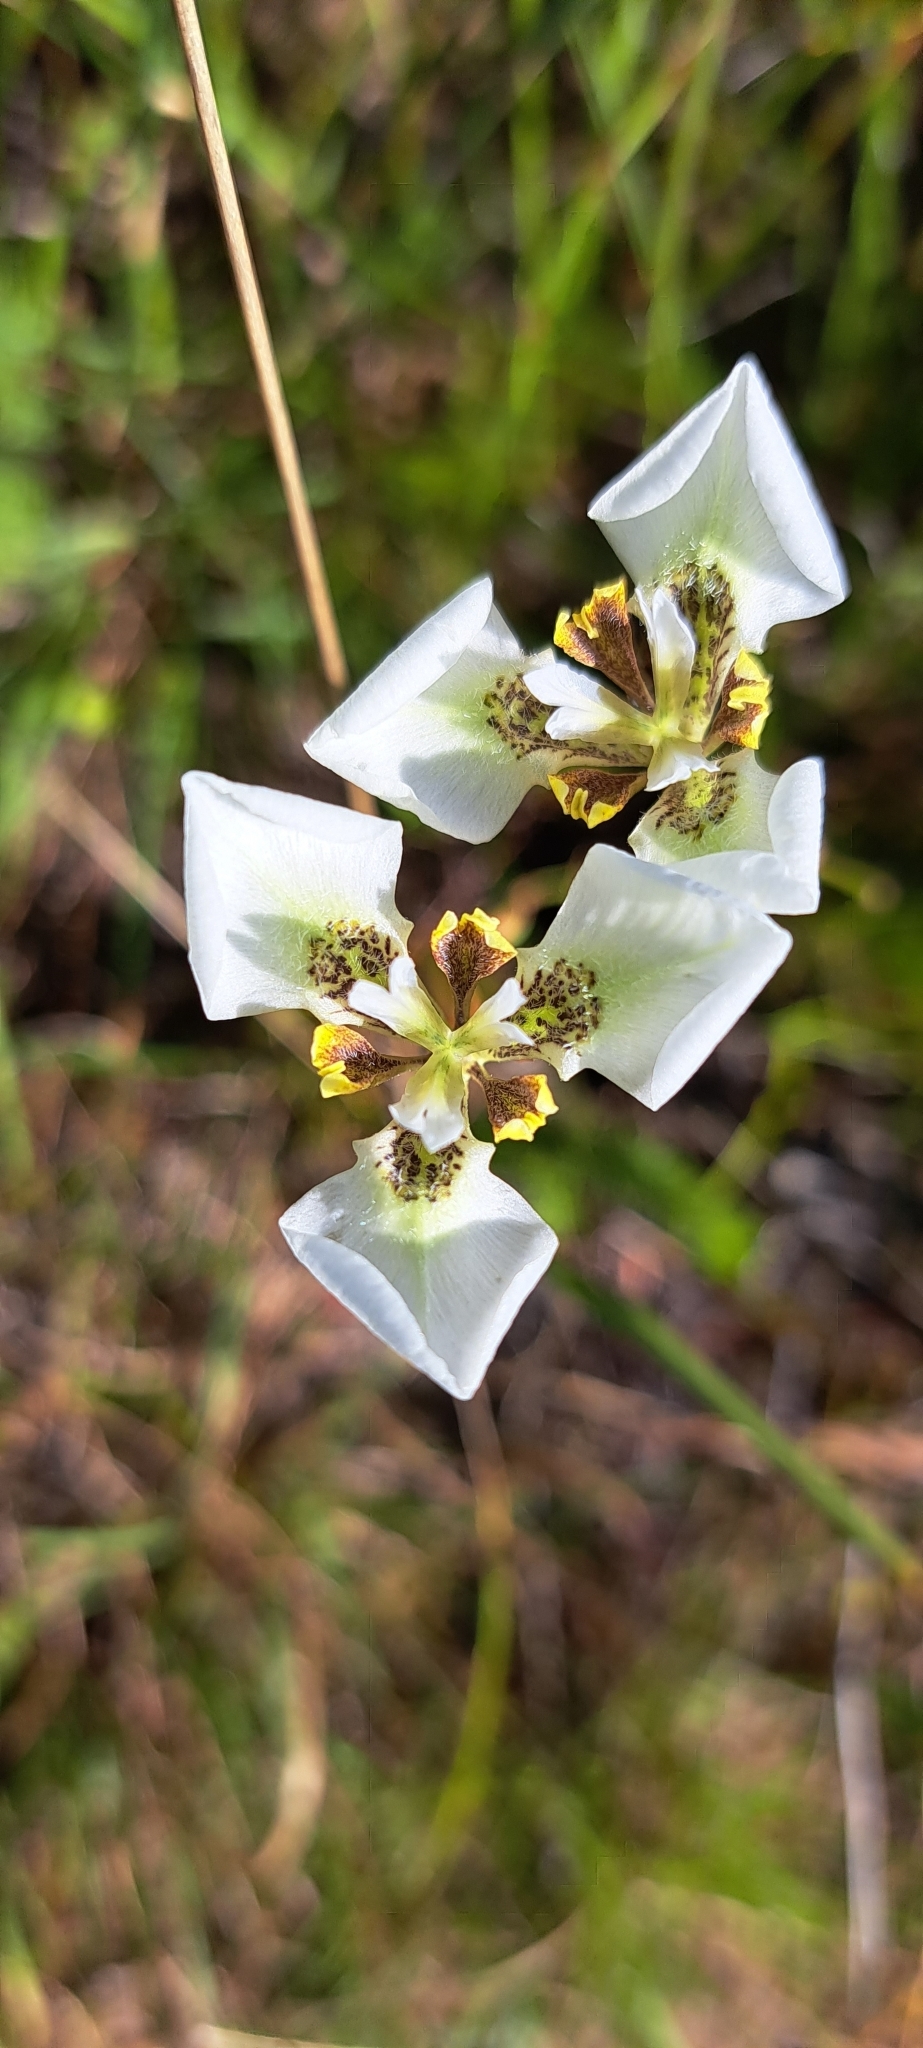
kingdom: Plantae
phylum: Tracheophyta
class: Liliopsida
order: Asparagales
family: Iridaceae
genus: Moraea
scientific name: Moraea tricuspidata
